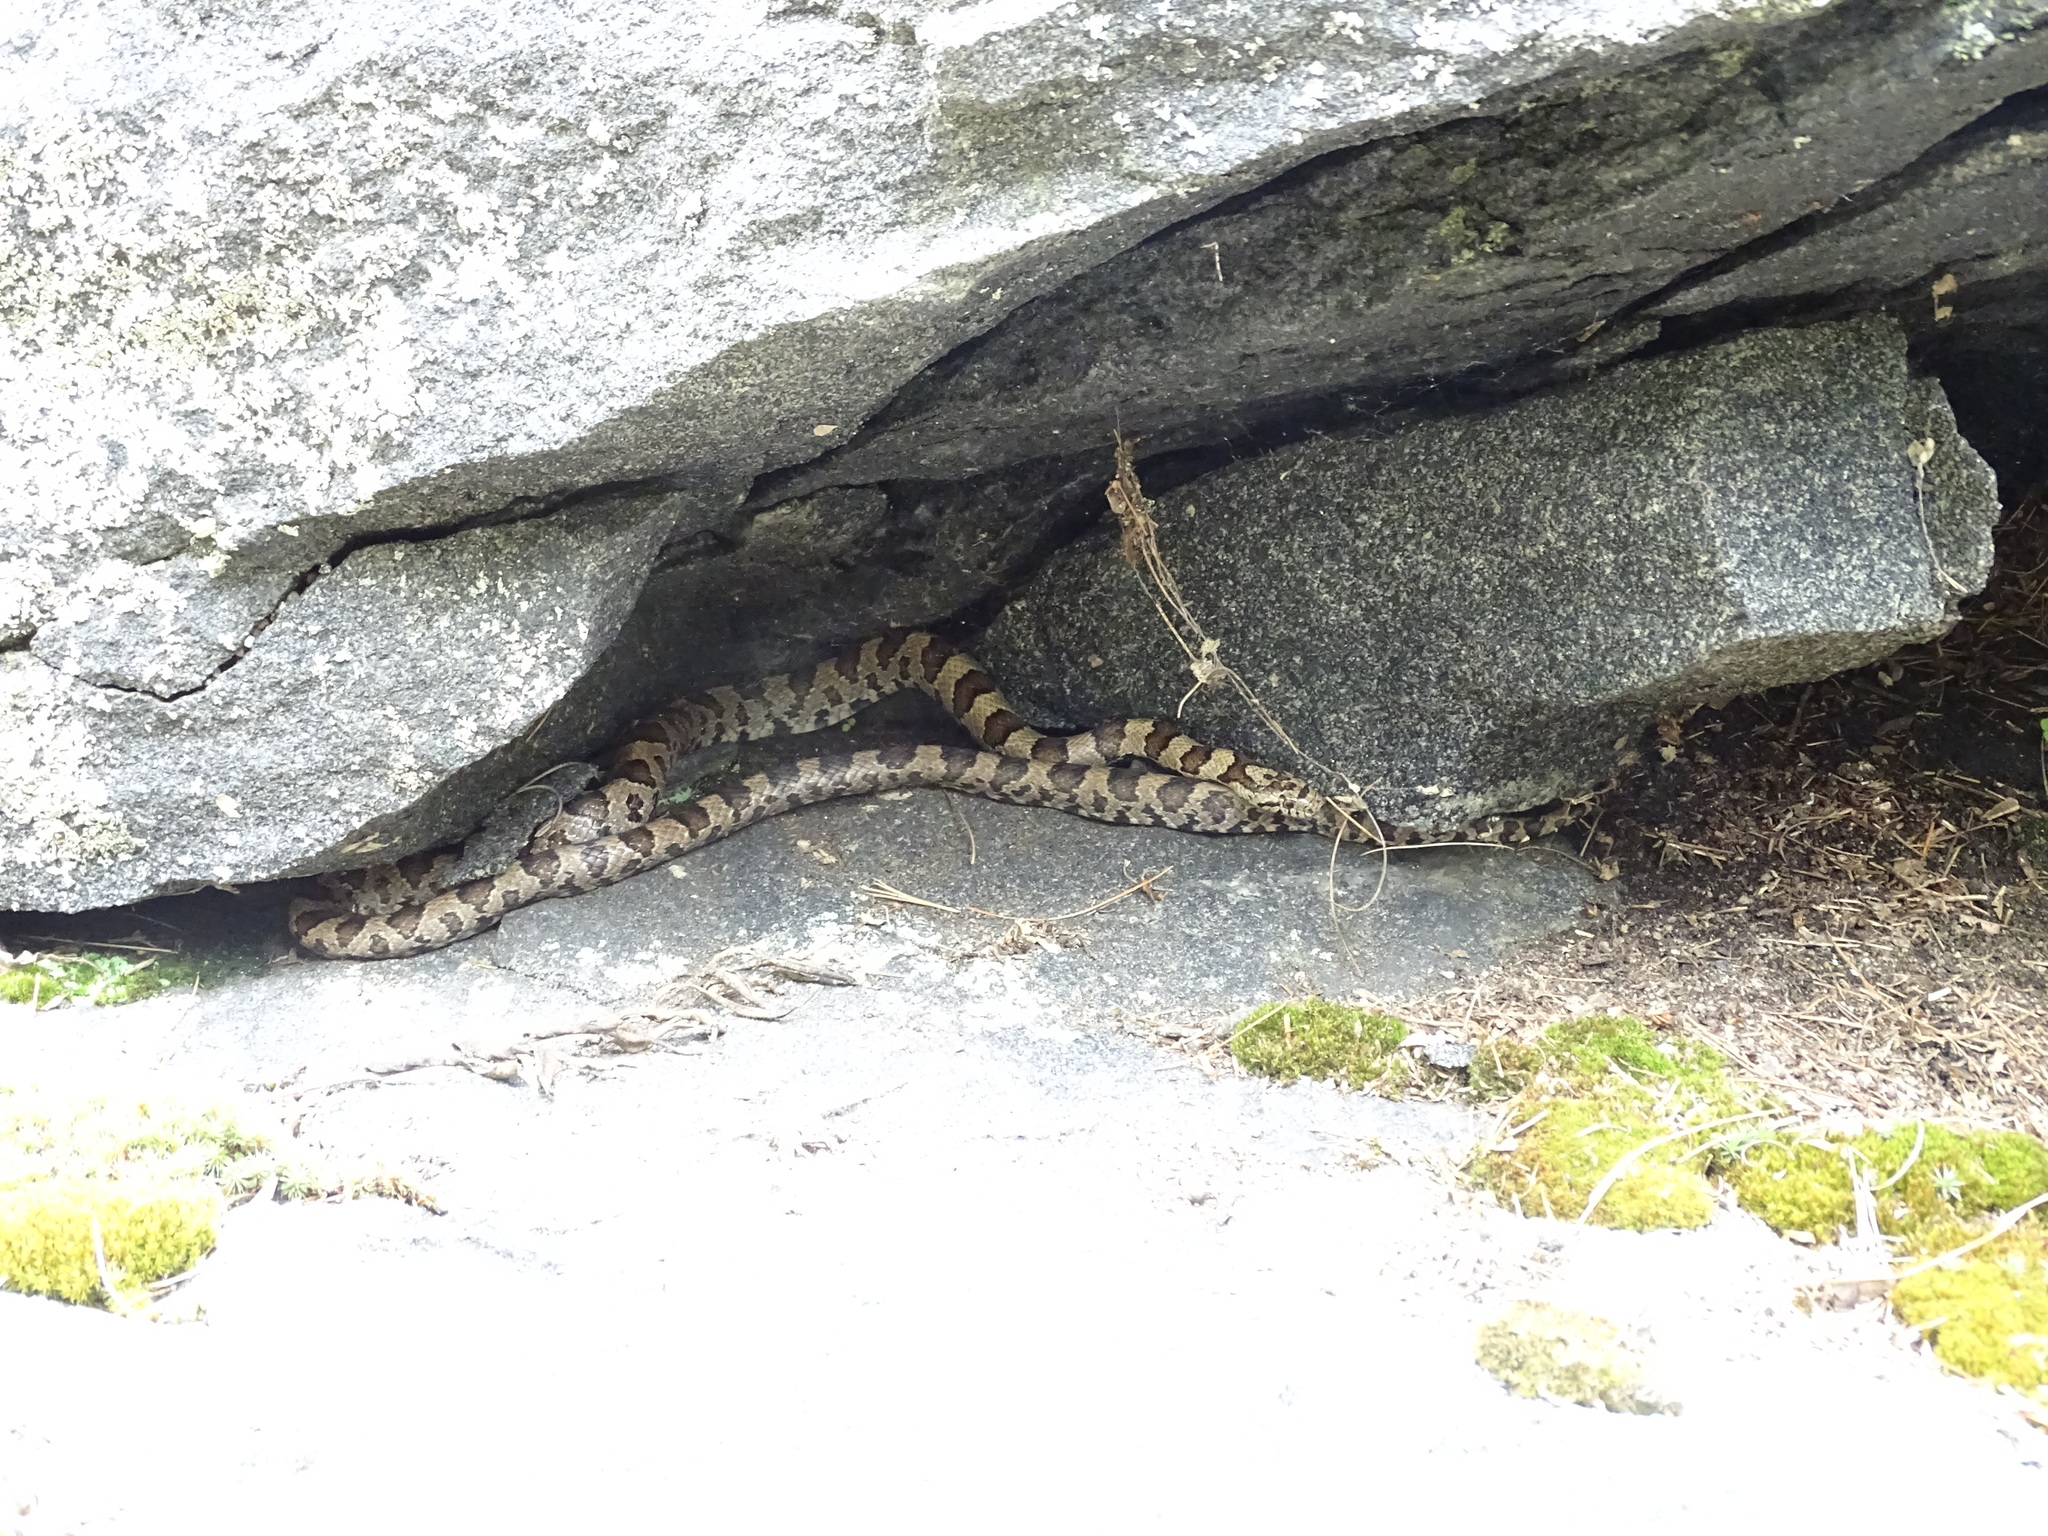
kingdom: Animalia
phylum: Chordata
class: Squamata
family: Colubridae
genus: Lampropeltis
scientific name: Lampropeltis triangulum
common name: Eastern milksnake
